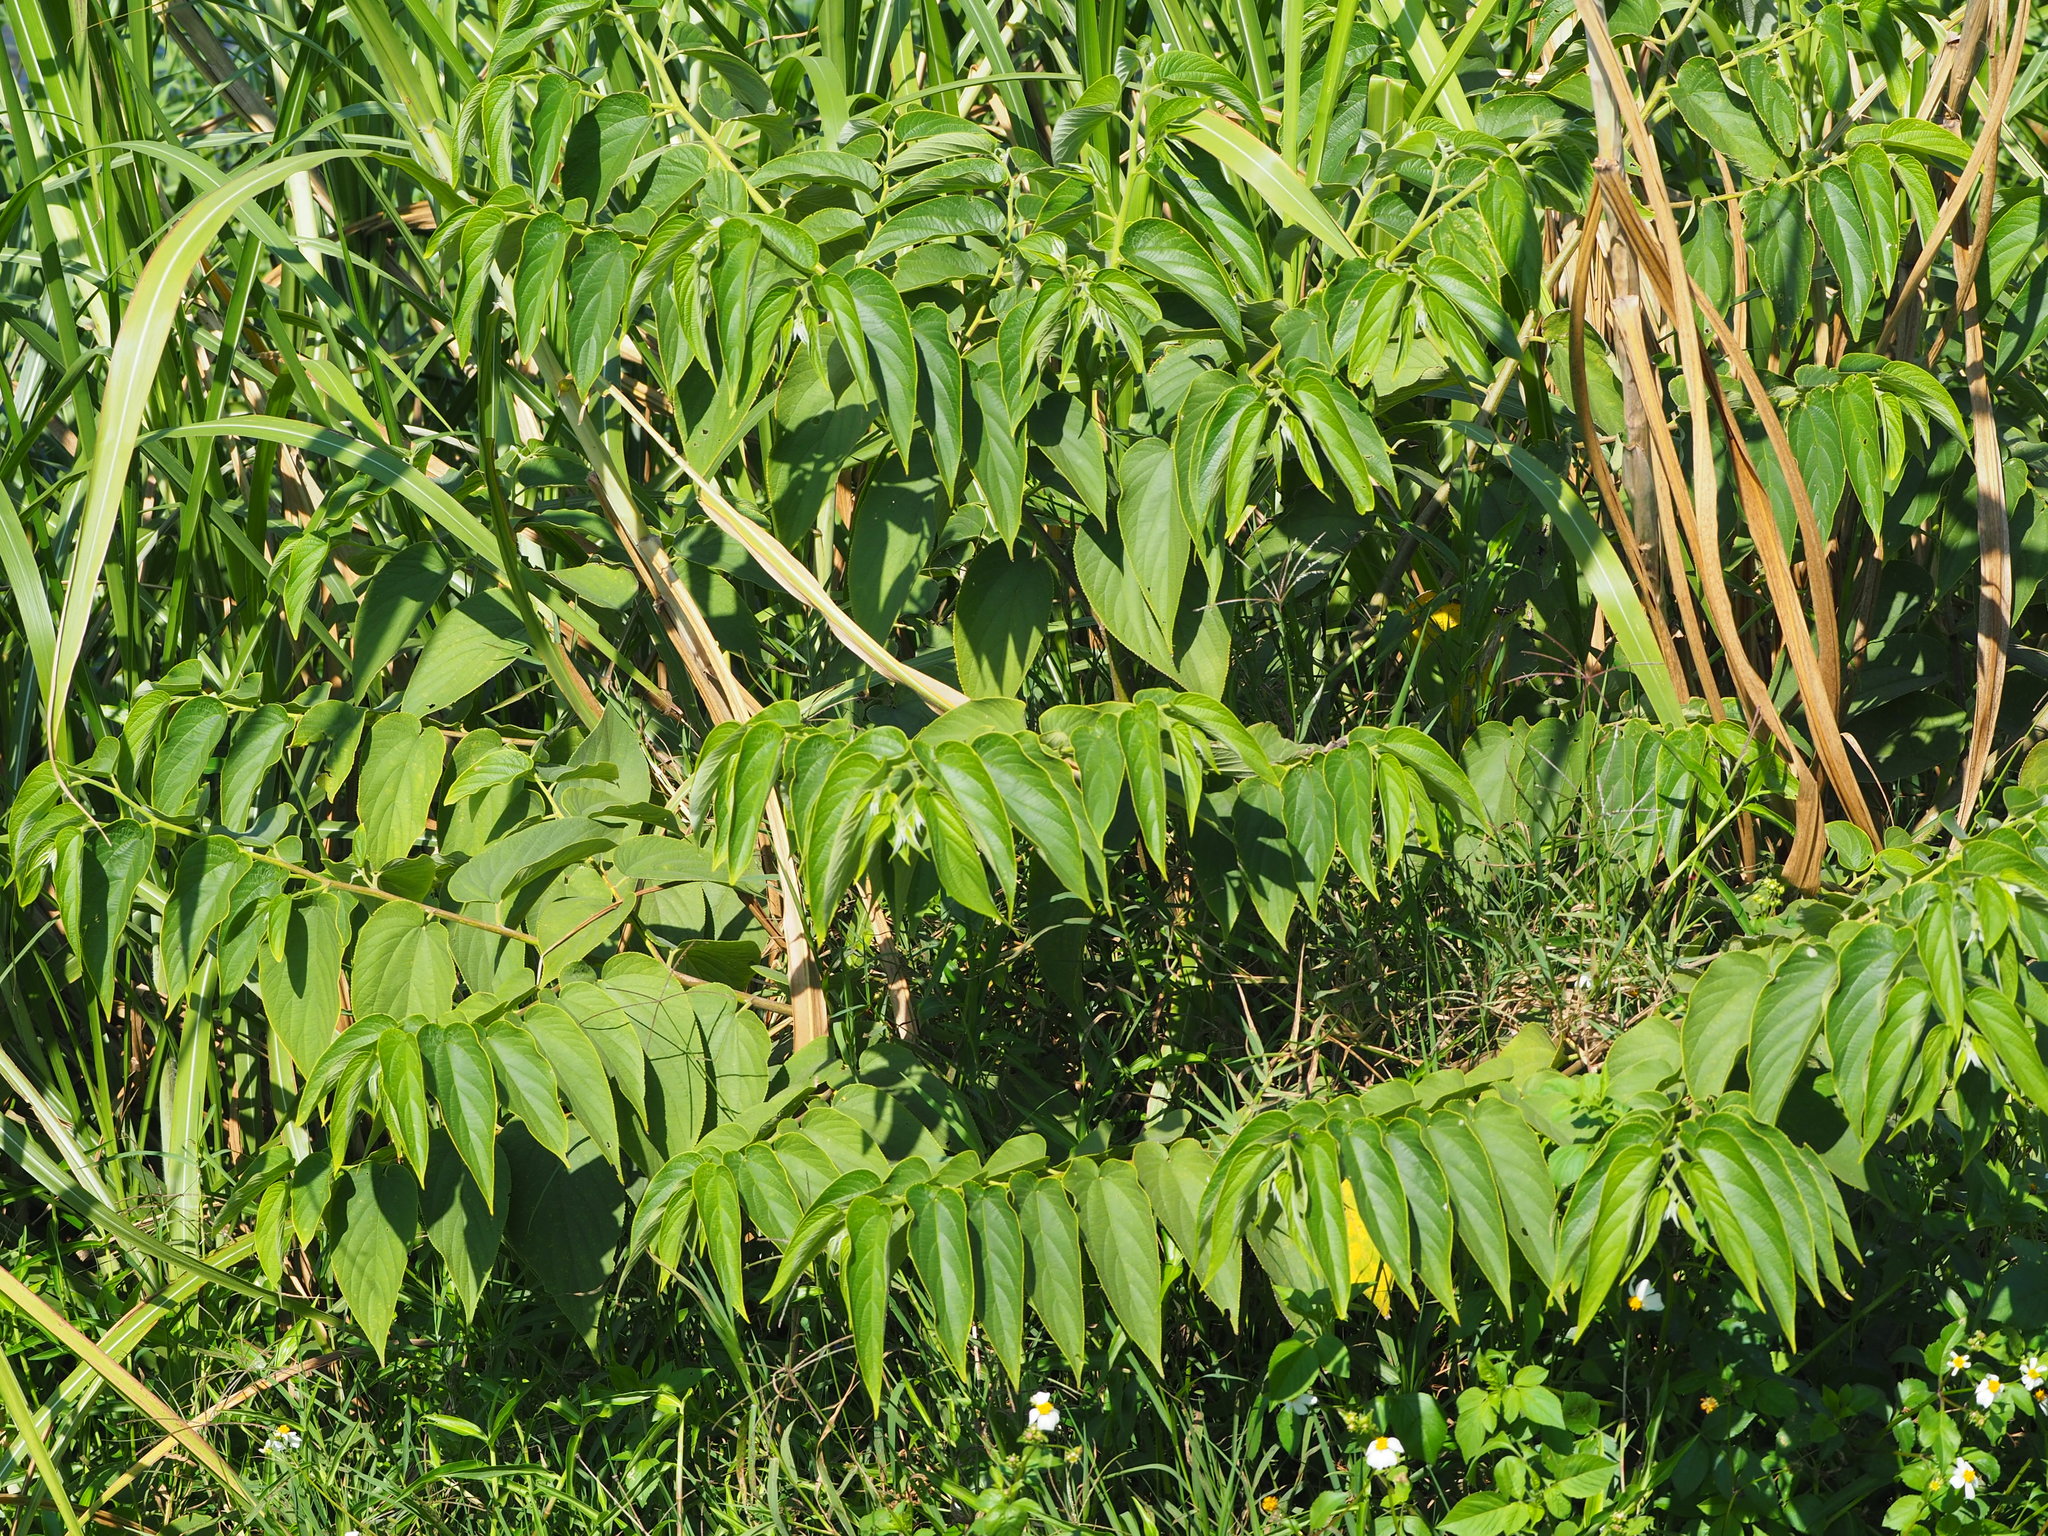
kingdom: Plantae
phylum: Tracheophyta
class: Magnoliopsida
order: Rosales
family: Cannabaceae
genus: Trema
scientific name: Trema orientale
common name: Indian charcoal tree
